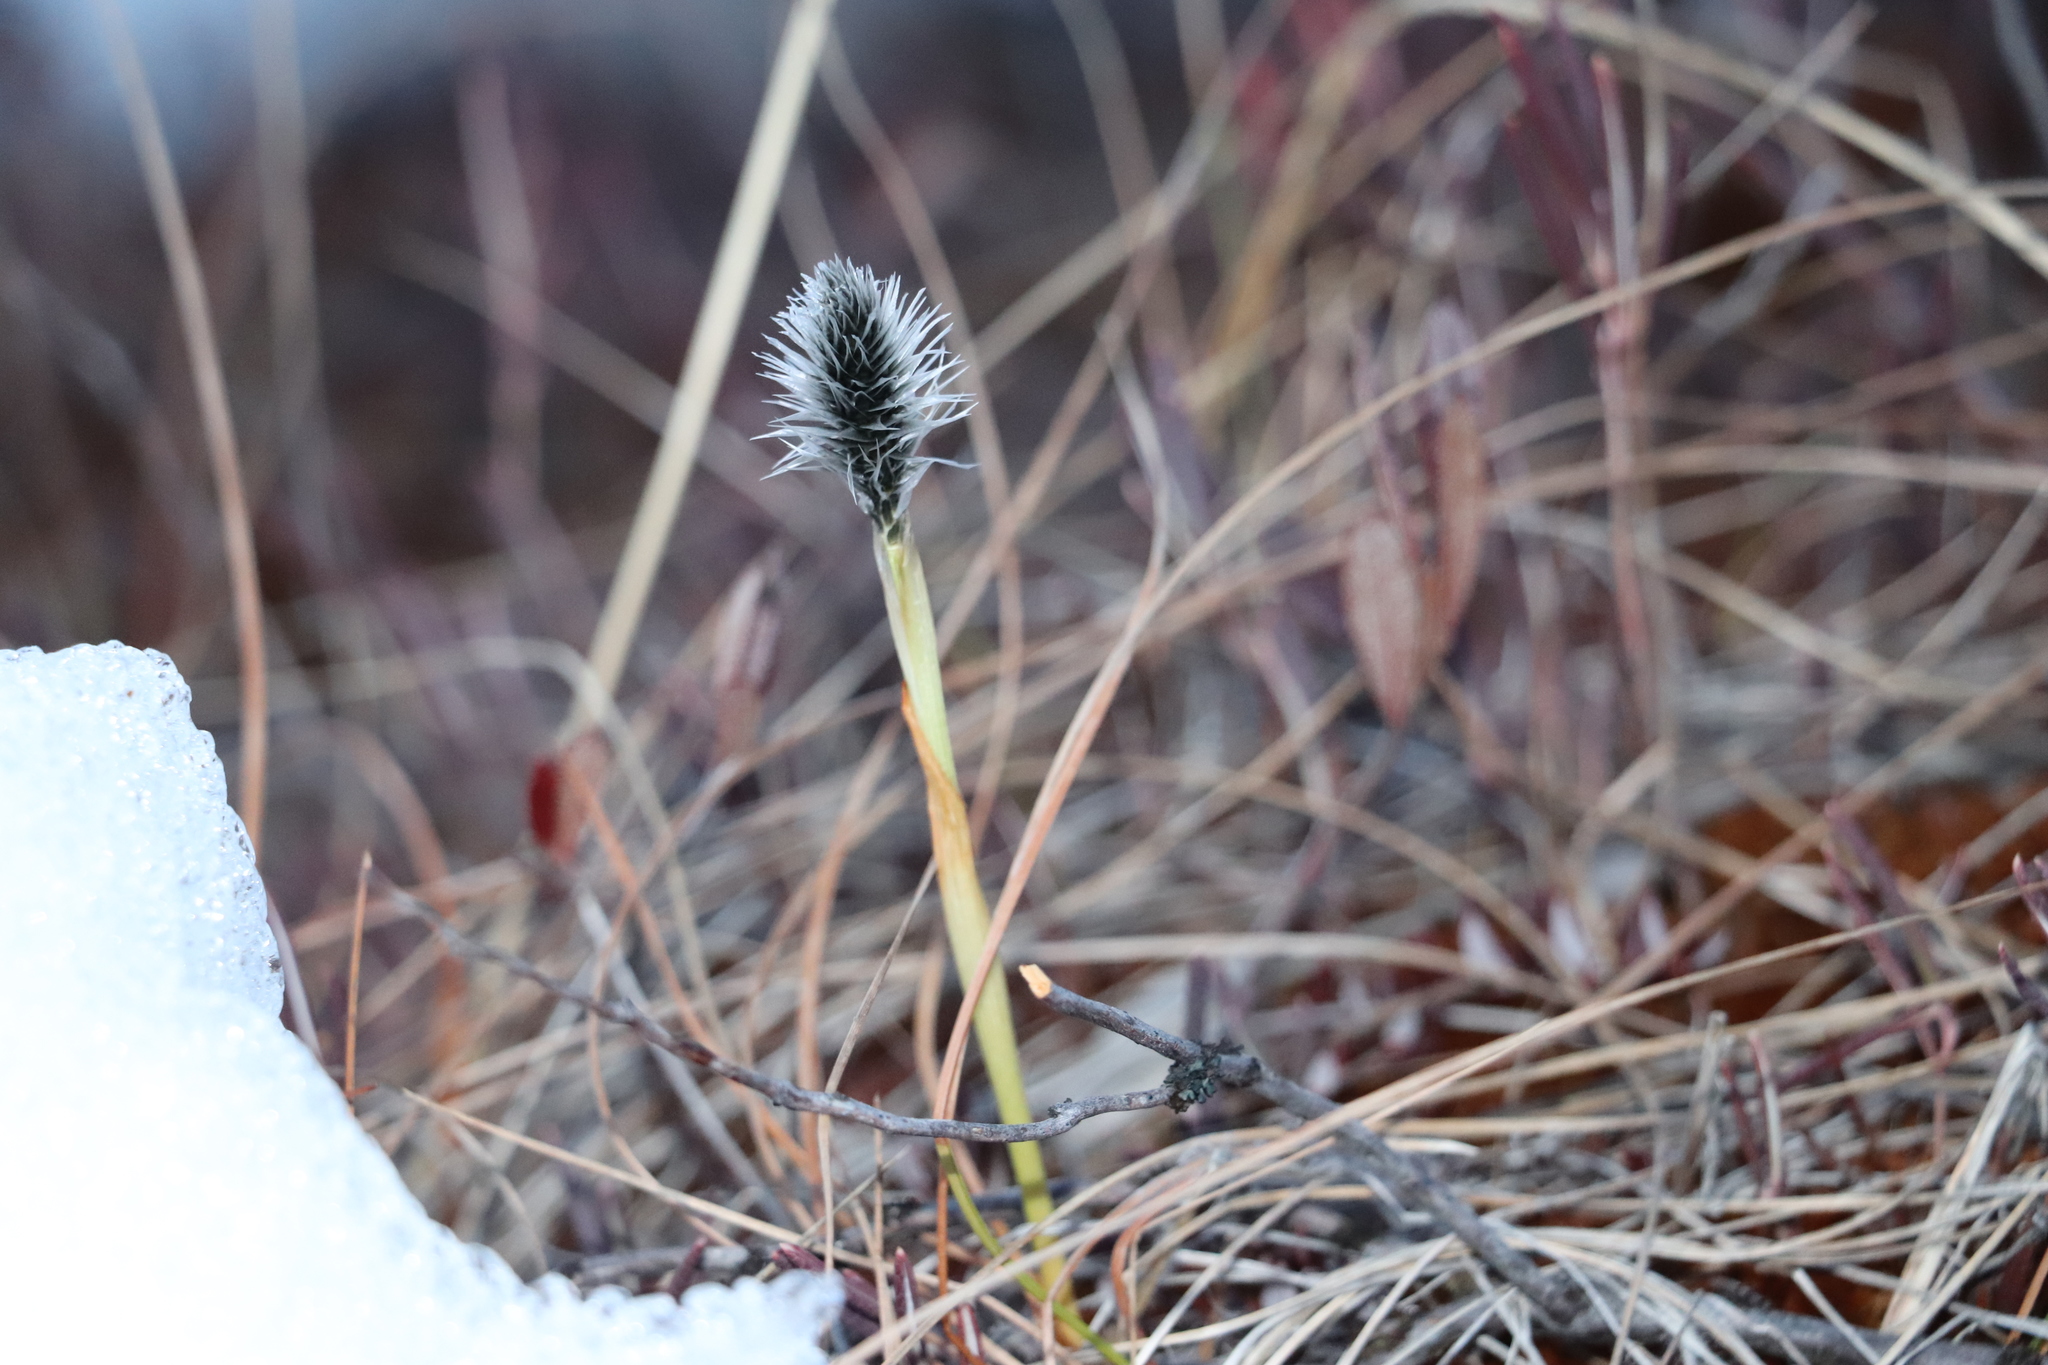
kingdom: Plantae
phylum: Tracheophyta
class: Liliopsida
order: Poales
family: Cyperaceae
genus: Eriophorum
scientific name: Eriophorum vaginatum
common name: Hare's-tail cottongrass
